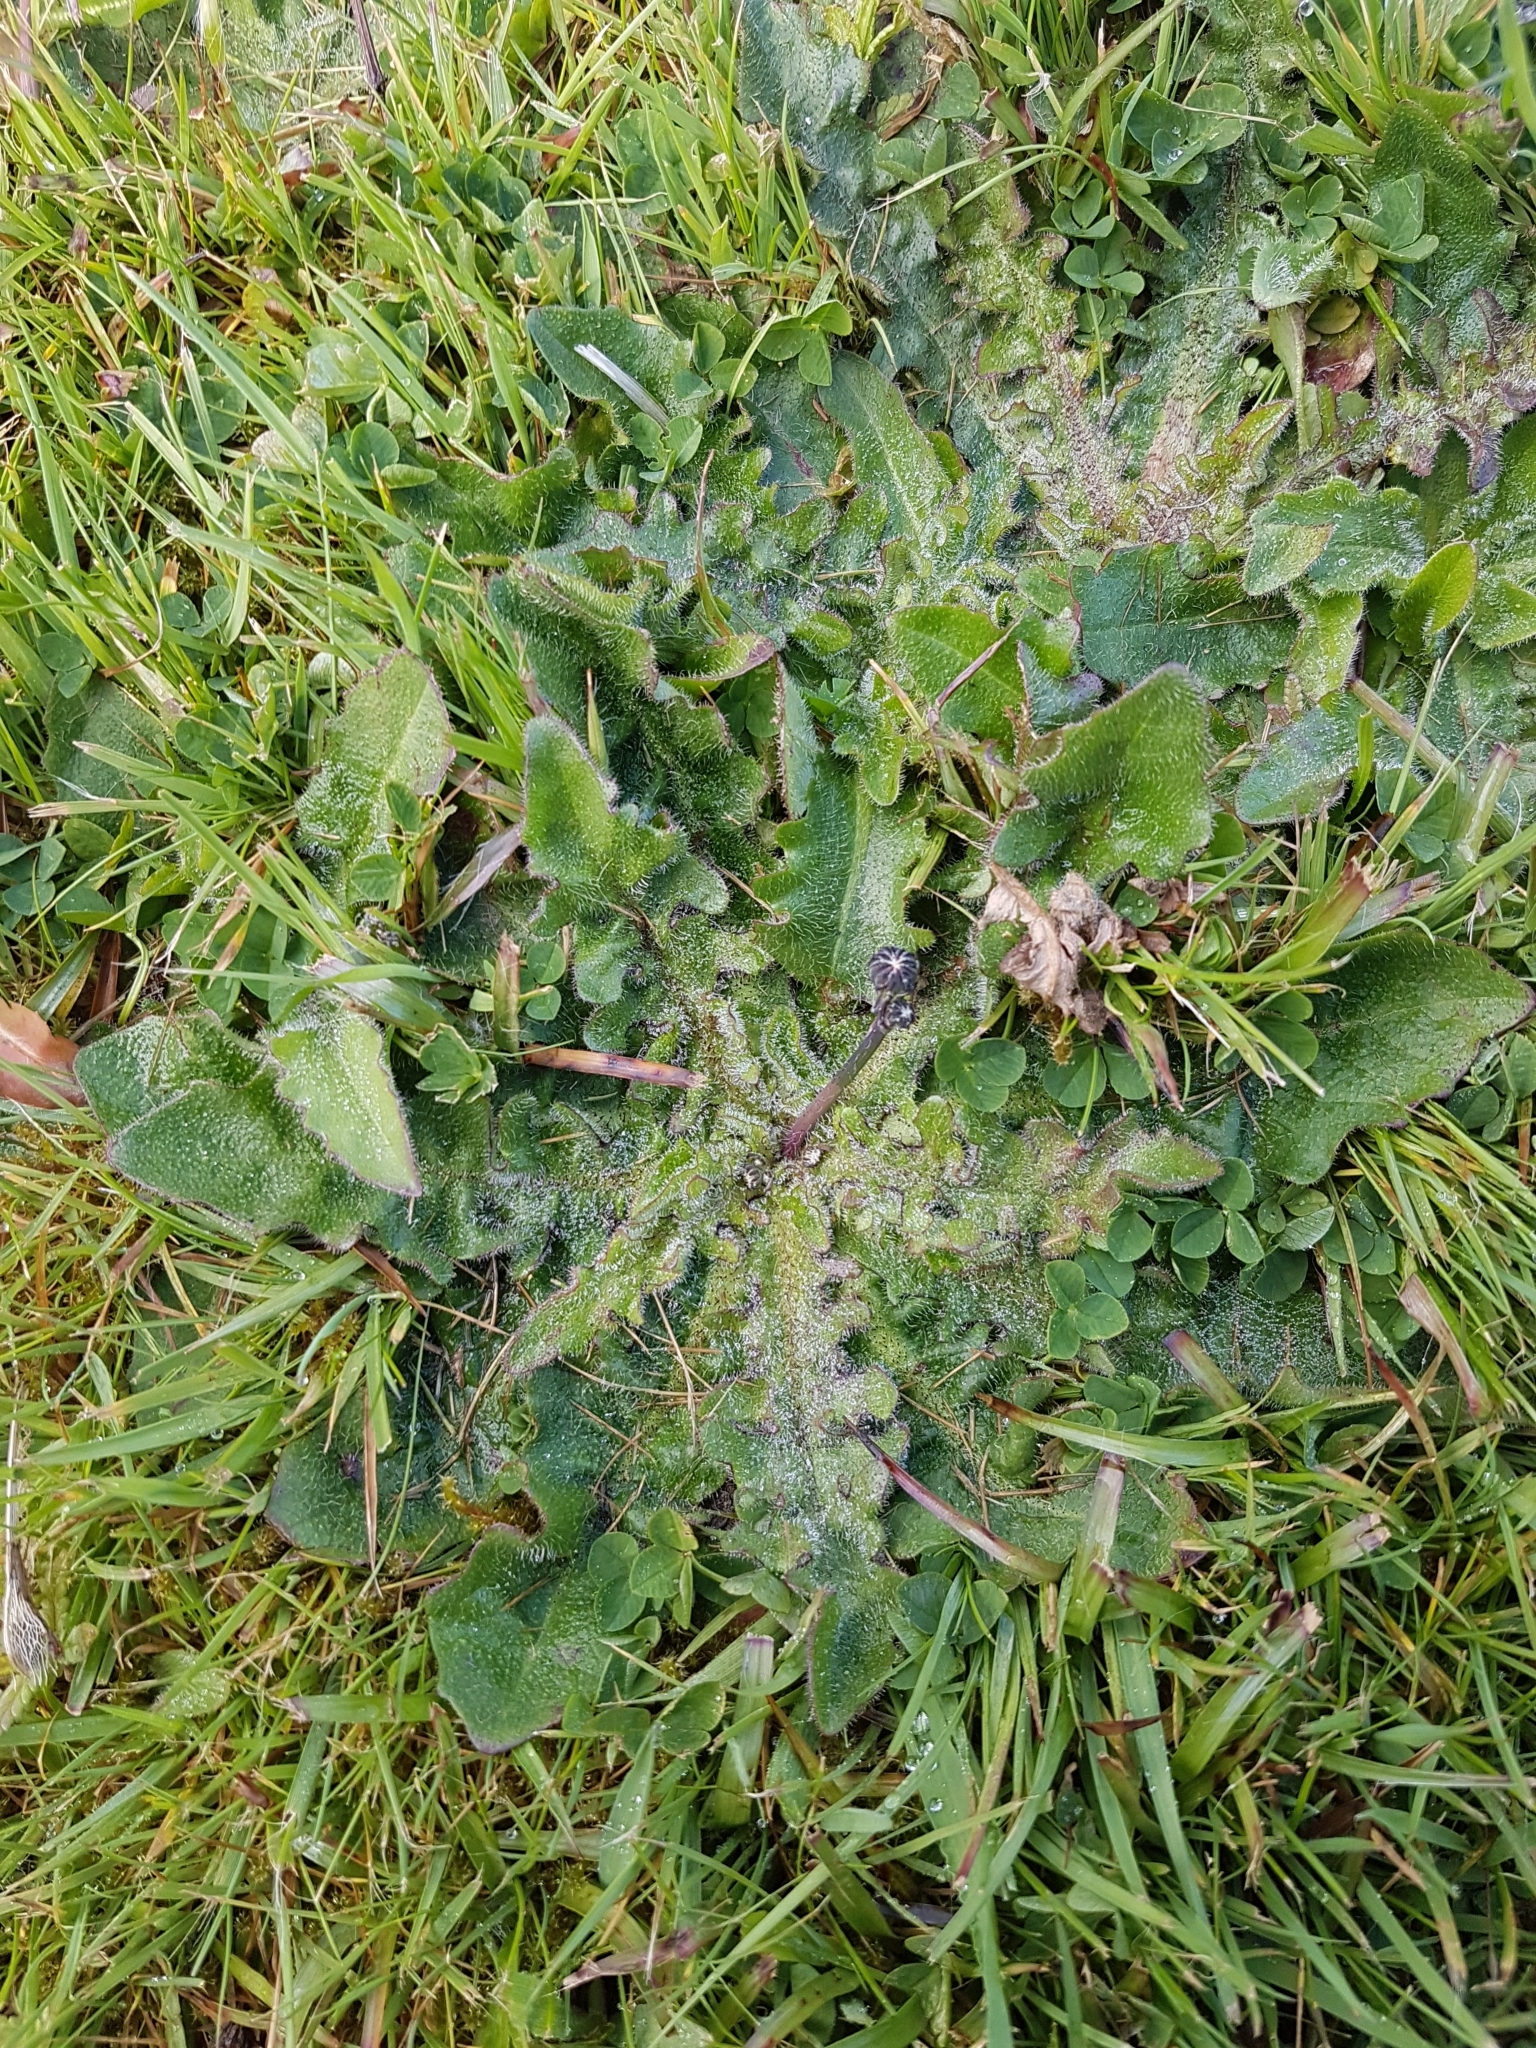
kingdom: Plantae
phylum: Tracheophyta
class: Magnoliopsida
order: Asterales
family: Asteraceae
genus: Hypochaeris
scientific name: Hypochaeris radicata
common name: Flatweed
